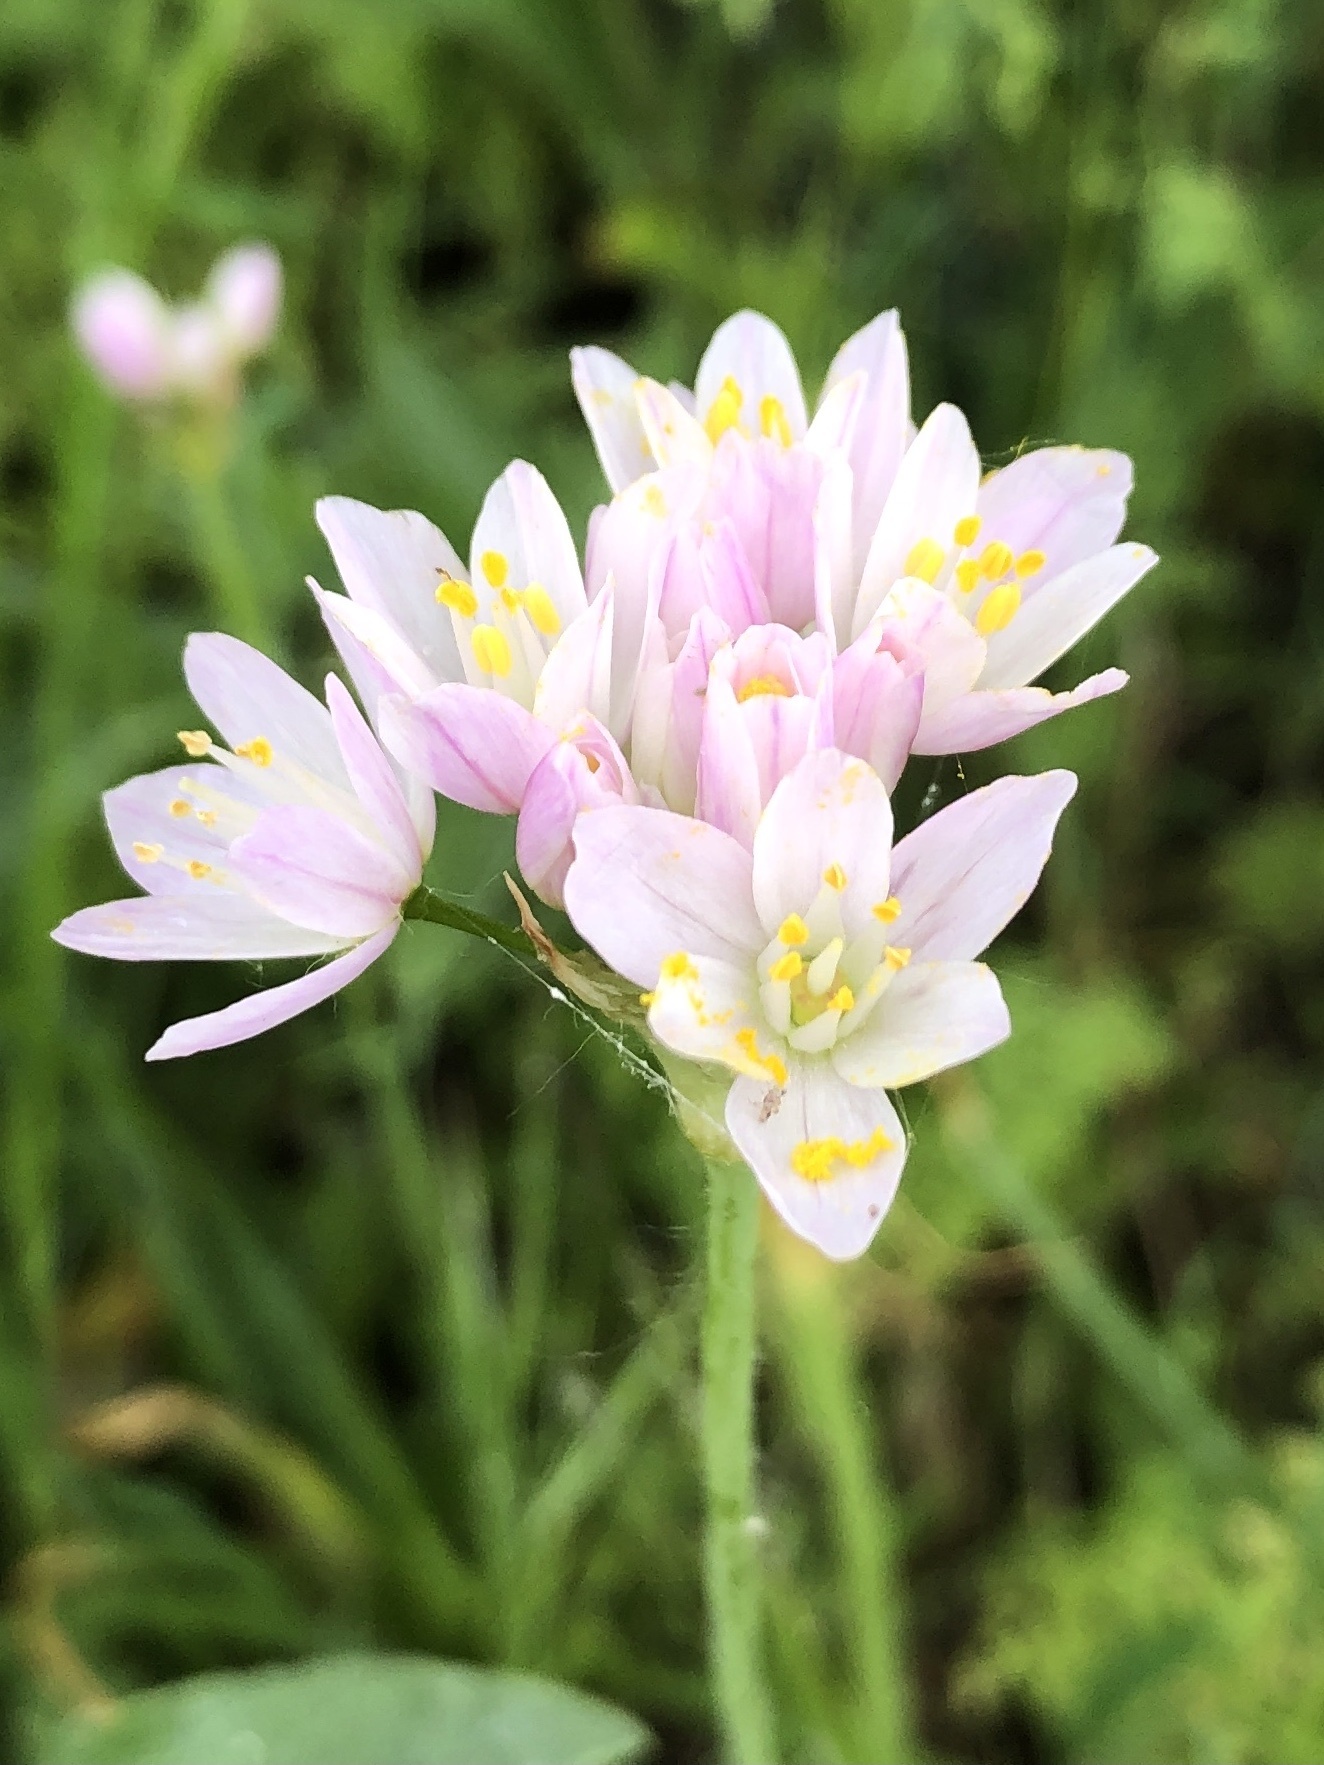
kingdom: Plantae
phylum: Tracheophyta
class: Liliopsida
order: Asparagales
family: Amaryllidaceae
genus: Allium
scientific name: Allium roseum
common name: Rosy garlic
